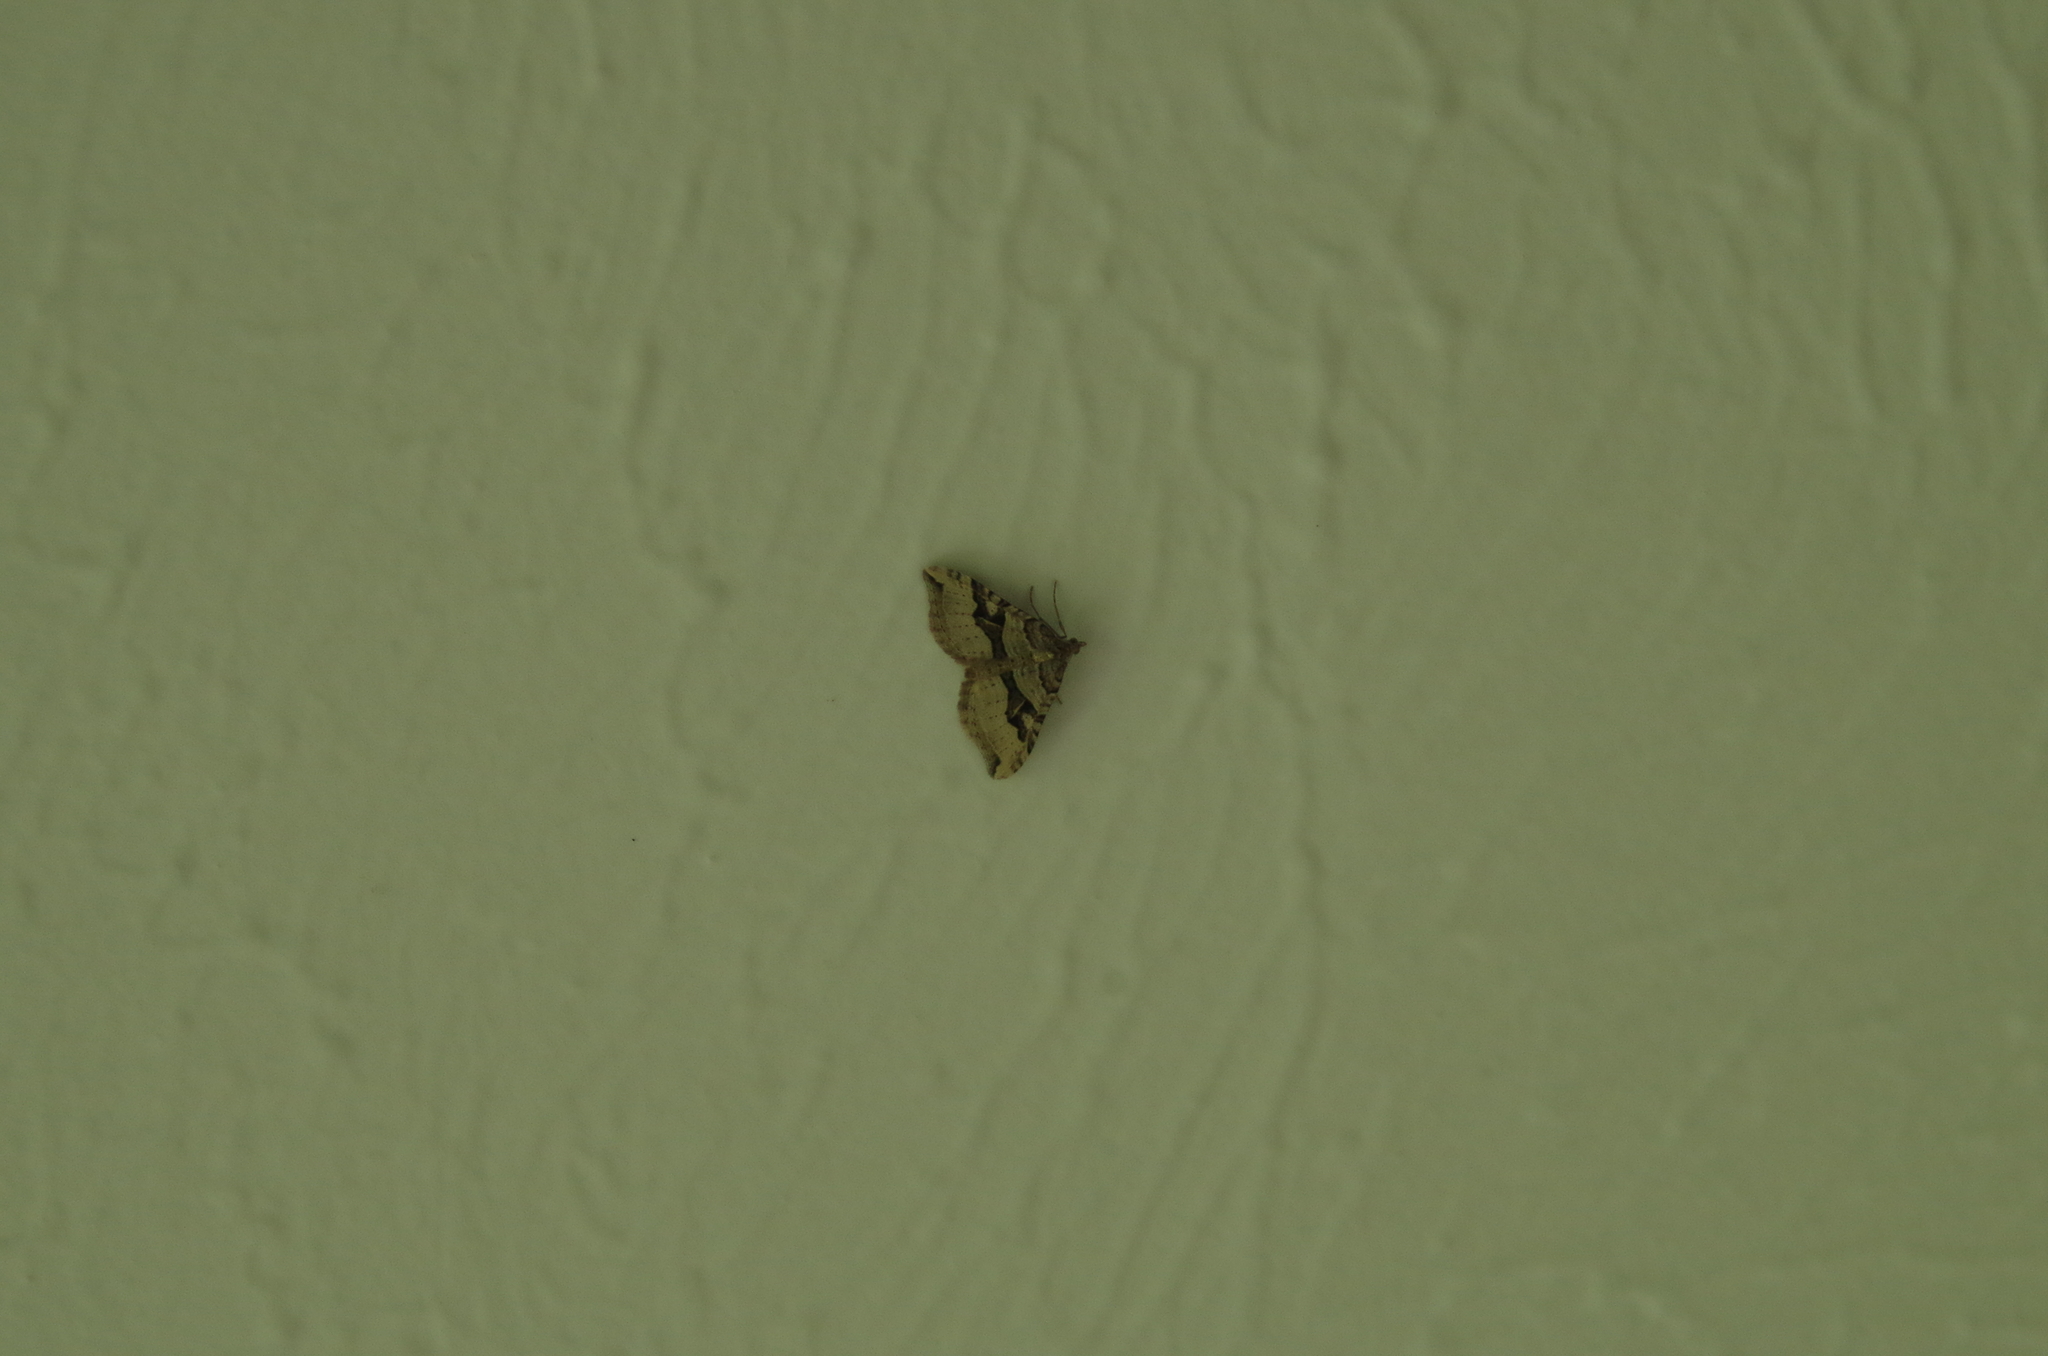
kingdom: Animalia
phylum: Arthropoda
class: Insecta
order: Lepidoptera
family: Geometridae
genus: Xanthorhoe
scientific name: Xanthorhoe semifissata
